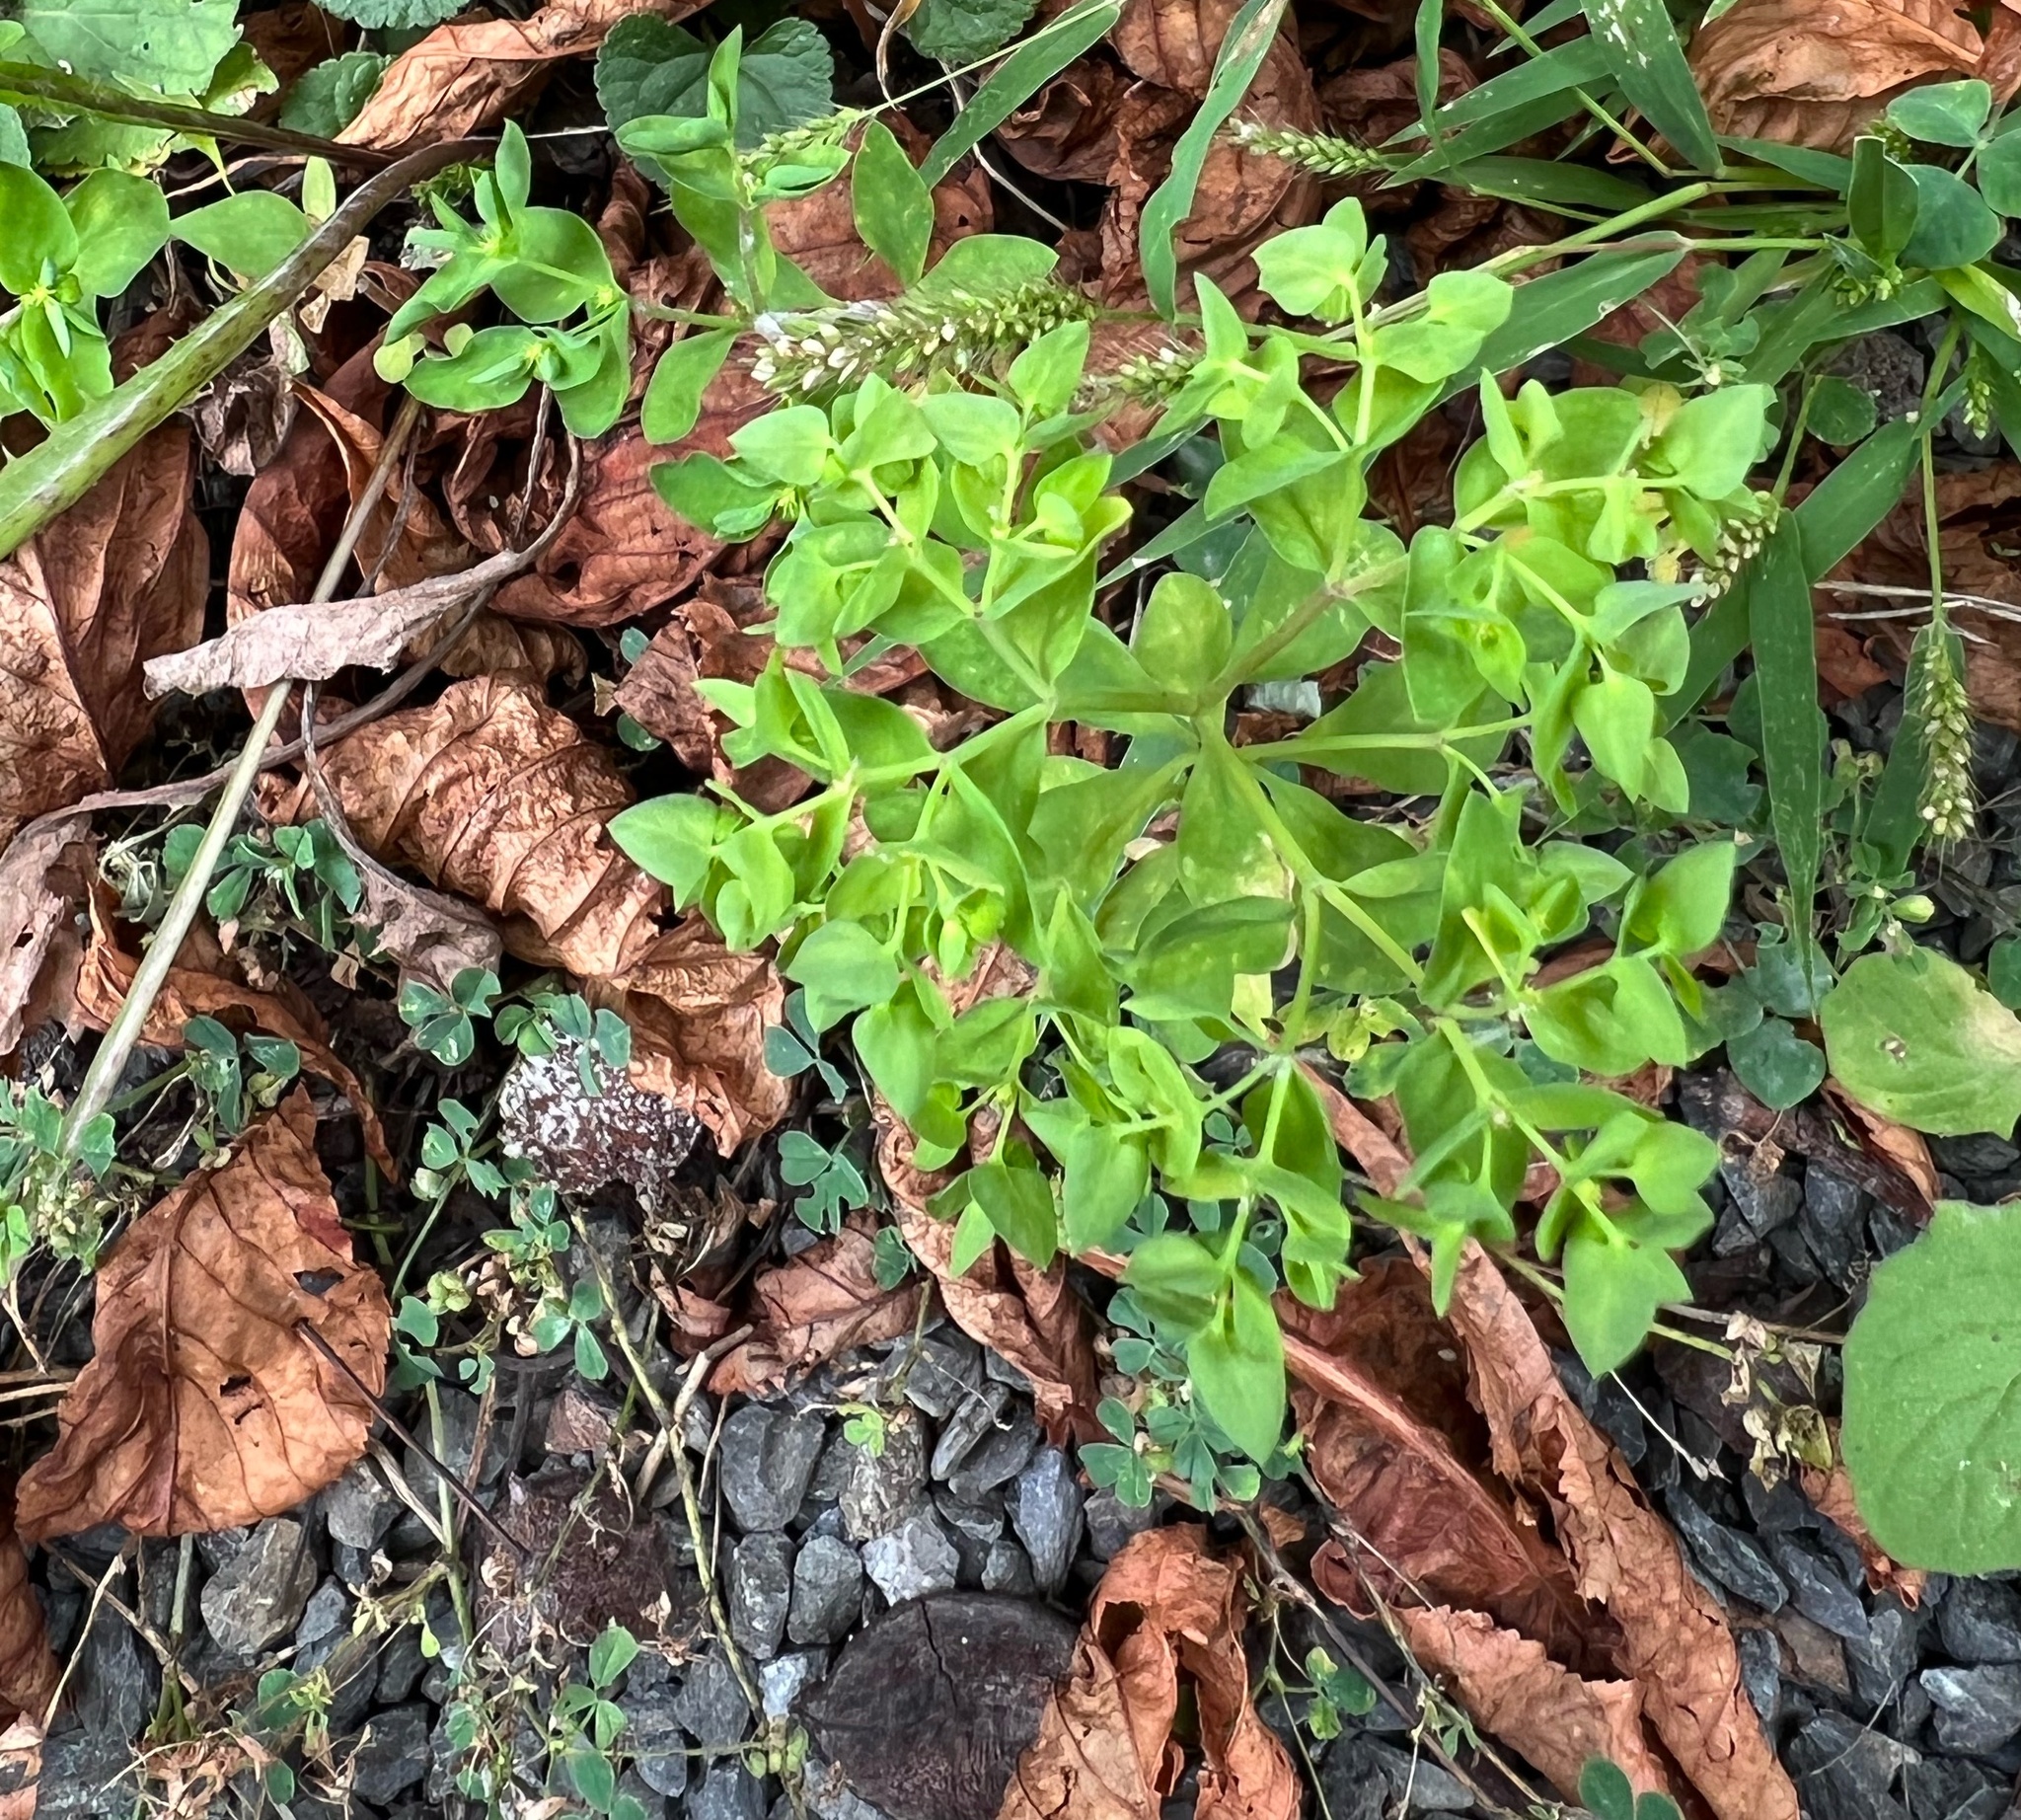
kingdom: Plantae
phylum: Tracheophyta
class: Magnoliopsida
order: Malpighiales
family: Euphorbiaceae
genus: Euphorbia
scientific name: Euphorbia peplus
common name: Petty spurge
